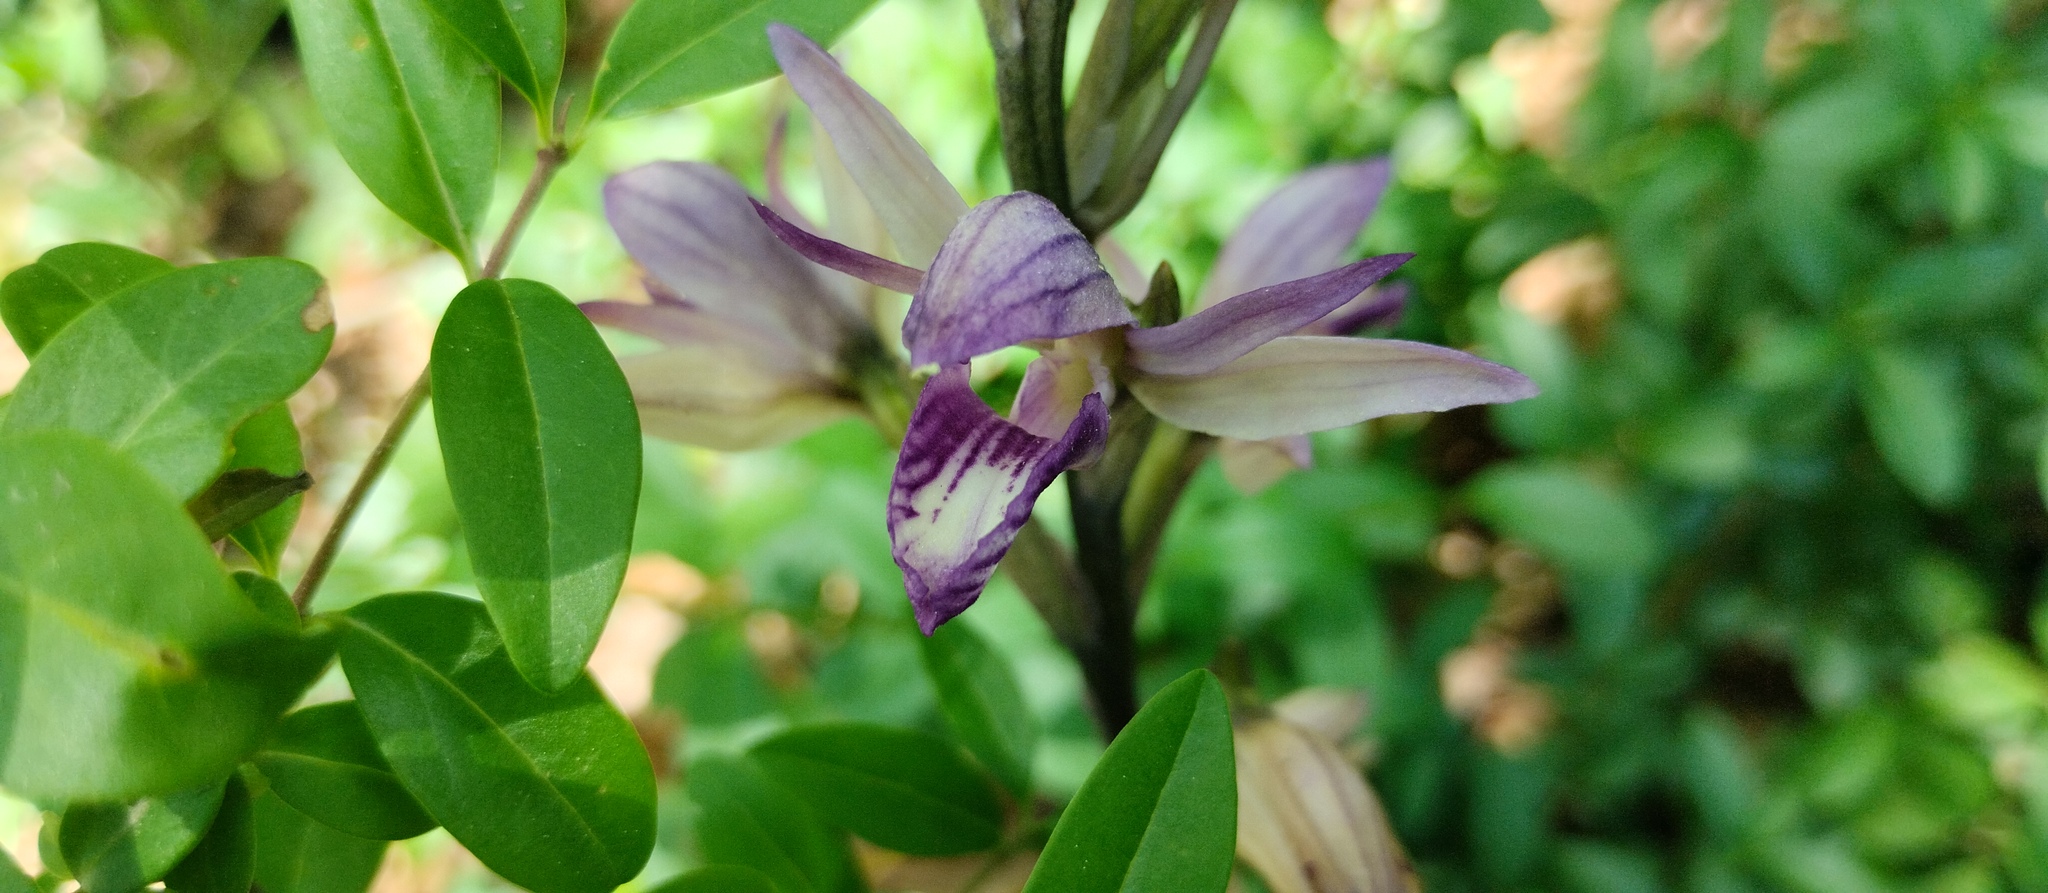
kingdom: Plantae
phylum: Tracheophyta
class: Liliopsida
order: Asparagales
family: Orchidaceae
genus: Limodorum
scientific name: Limodorum abortivum
